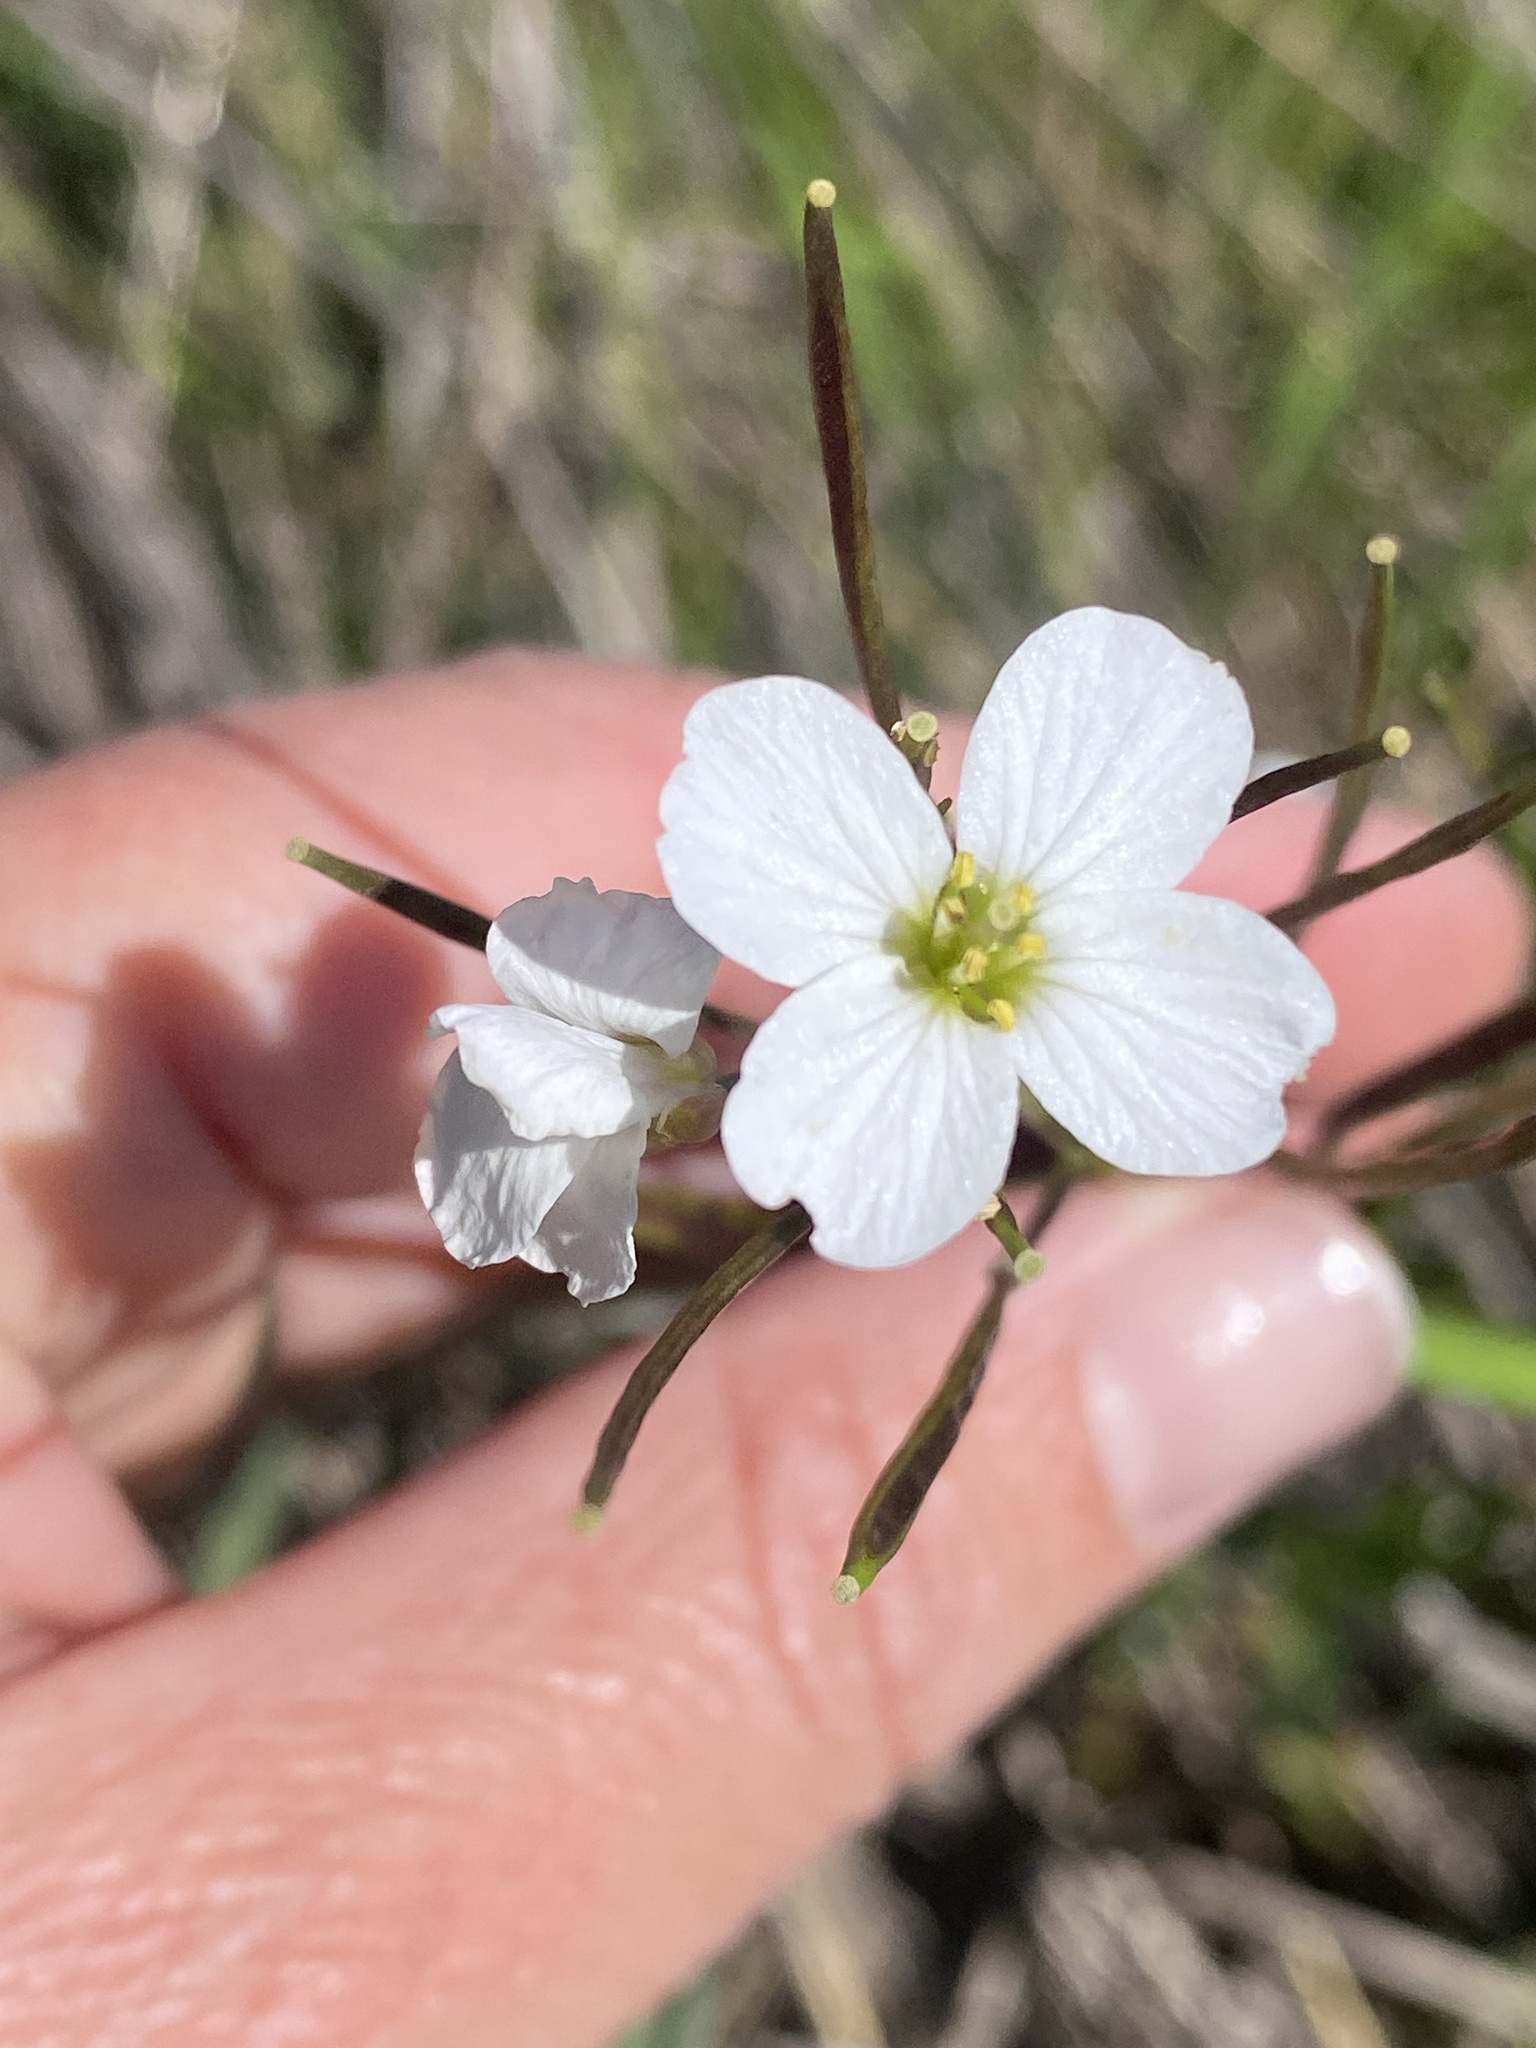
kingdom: Plantae
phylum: Tracheophyta
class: Magnoliopsida
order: Brassicales
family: Brassicaceae
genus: Cardamine
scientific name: Cardamine californica
